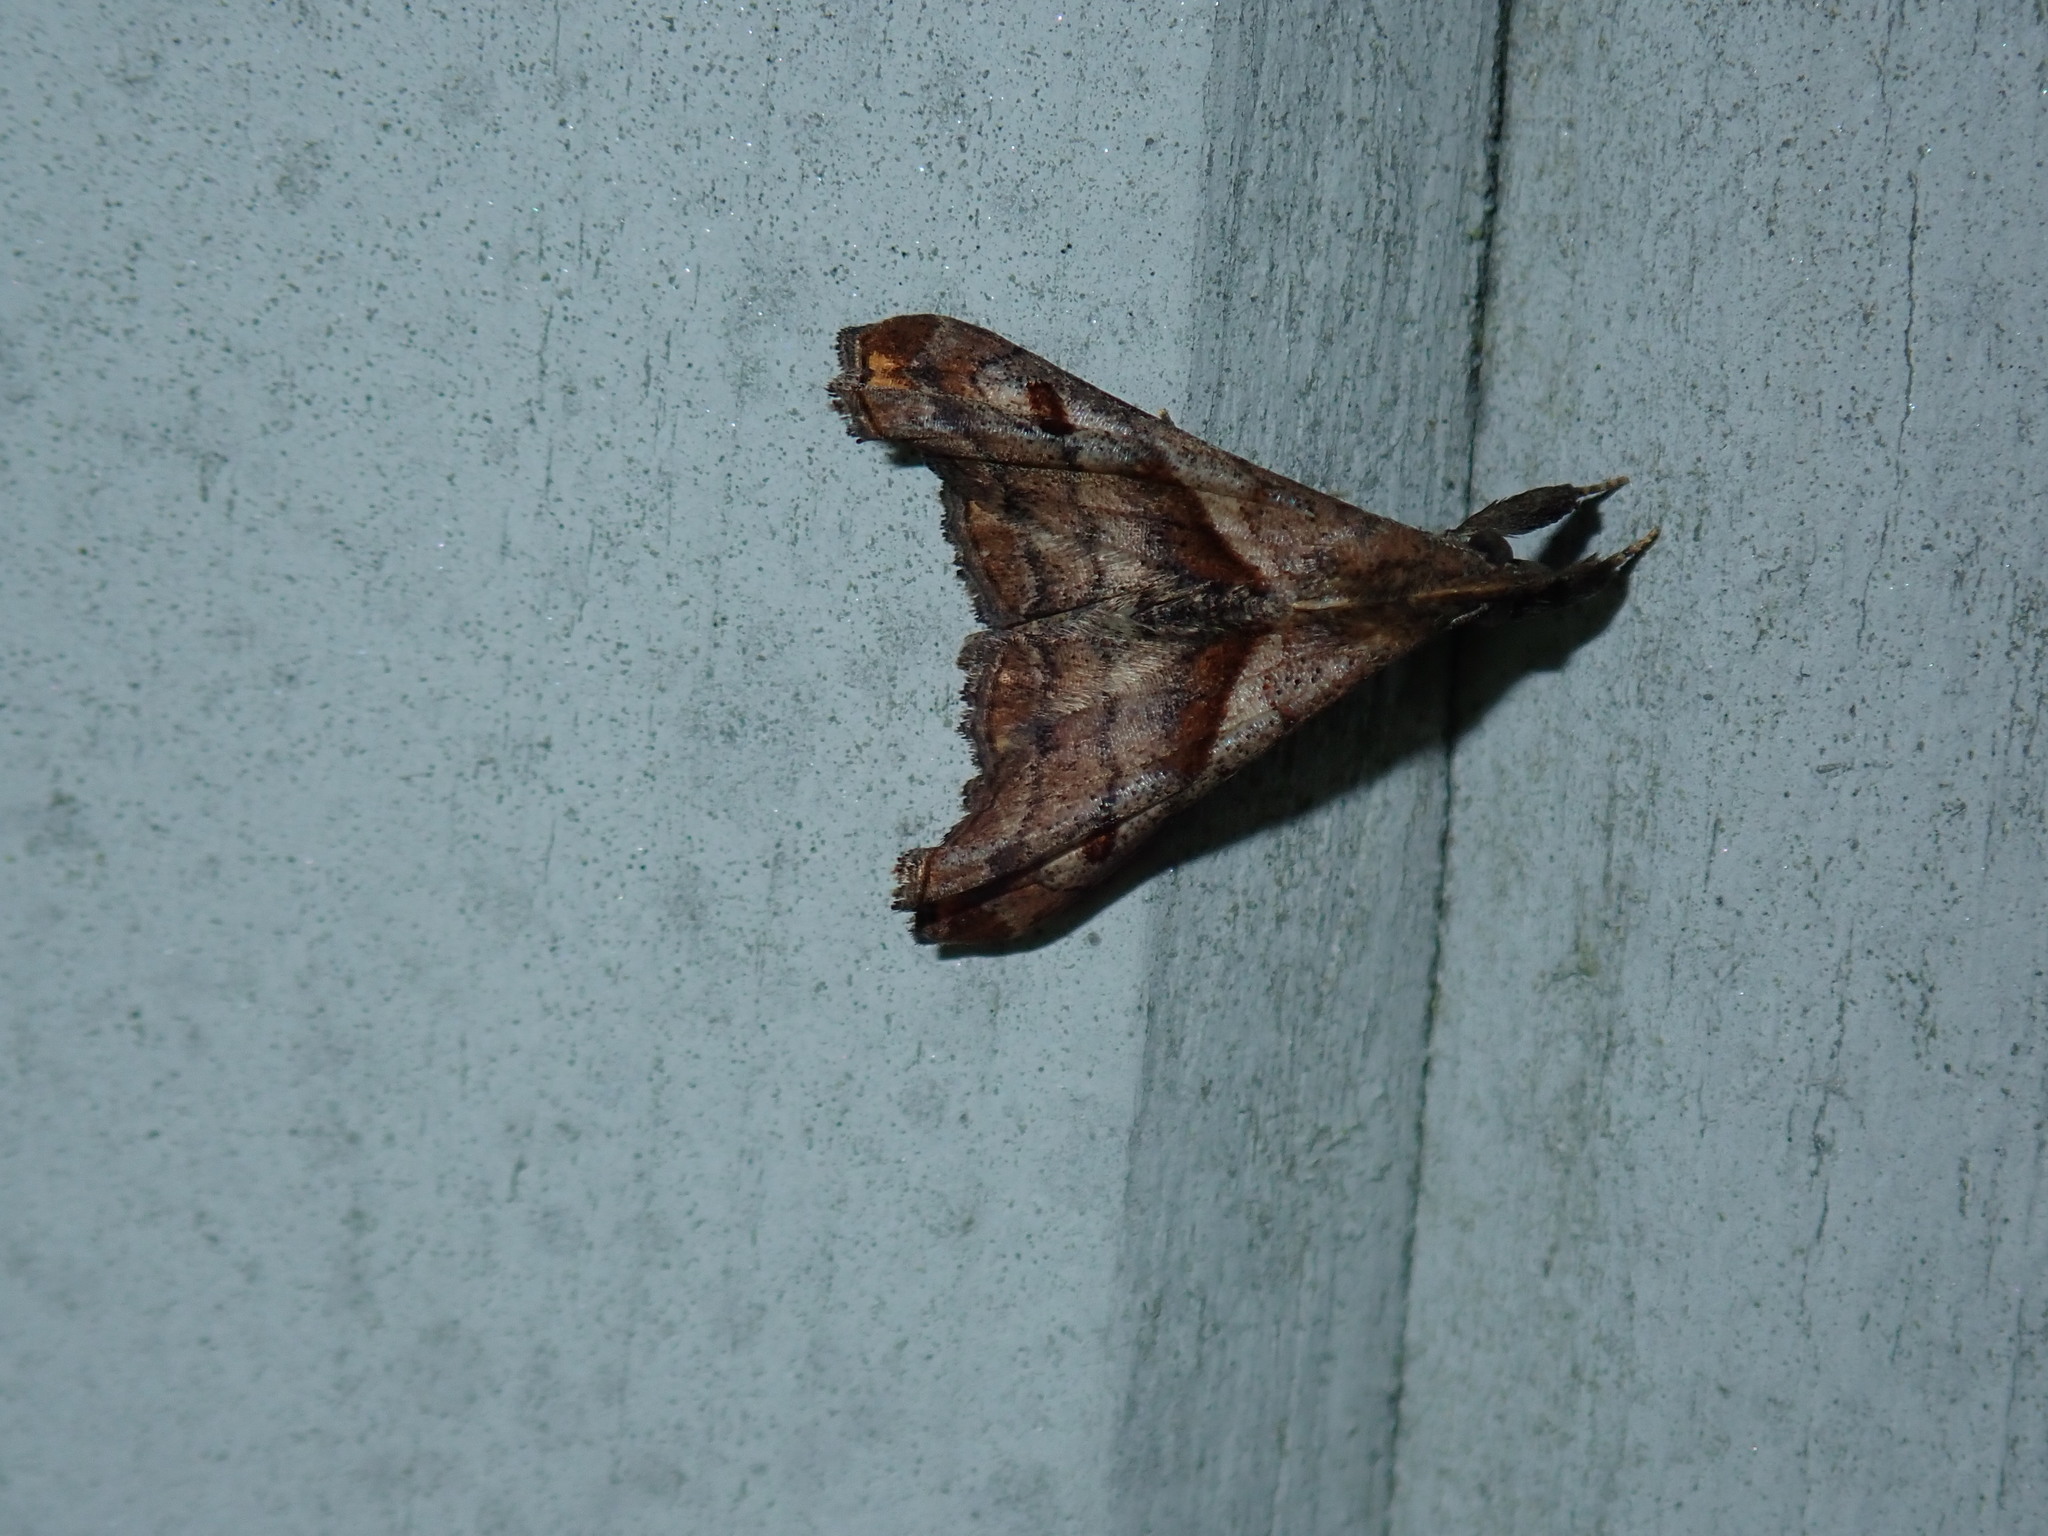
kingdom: Animalia
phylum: Arthropoda
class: Insecta
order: Lepidoptera
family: Erebidae
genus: Palthis
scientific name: Palthis angulalis
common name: Dark-spotted palthis moth
